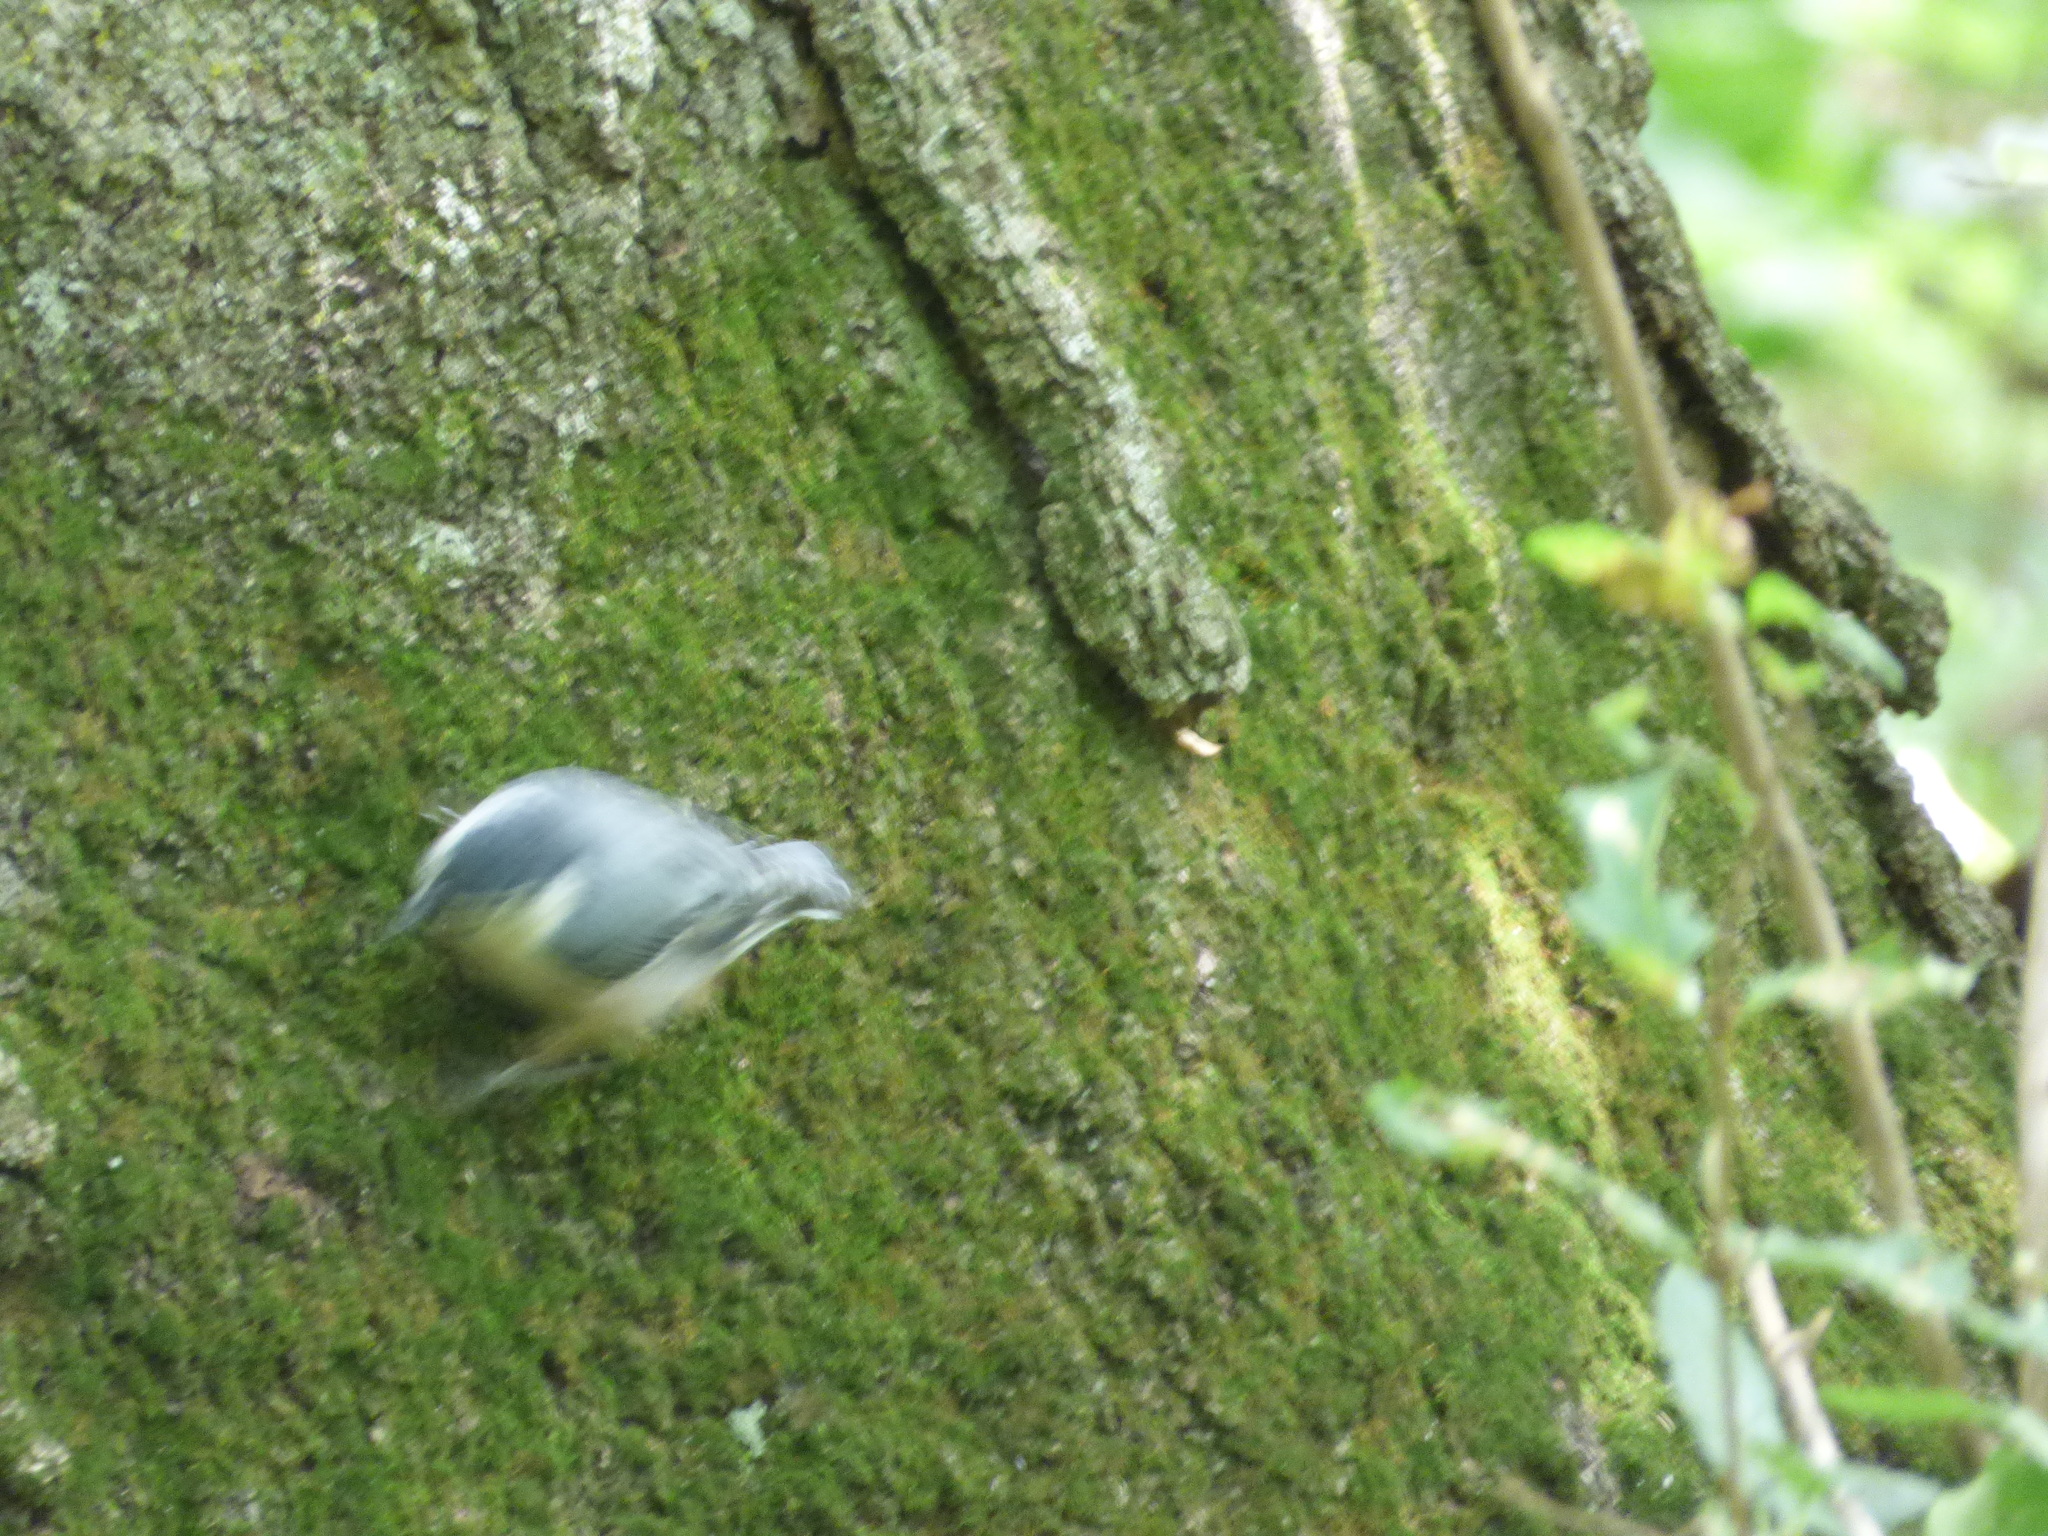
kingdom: Animalia
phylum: Chordata
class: Aves
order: Passeriformes
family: Sittidae
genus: Sitta
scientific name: Sitta carolinensis
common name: White-breasted nuthatch
